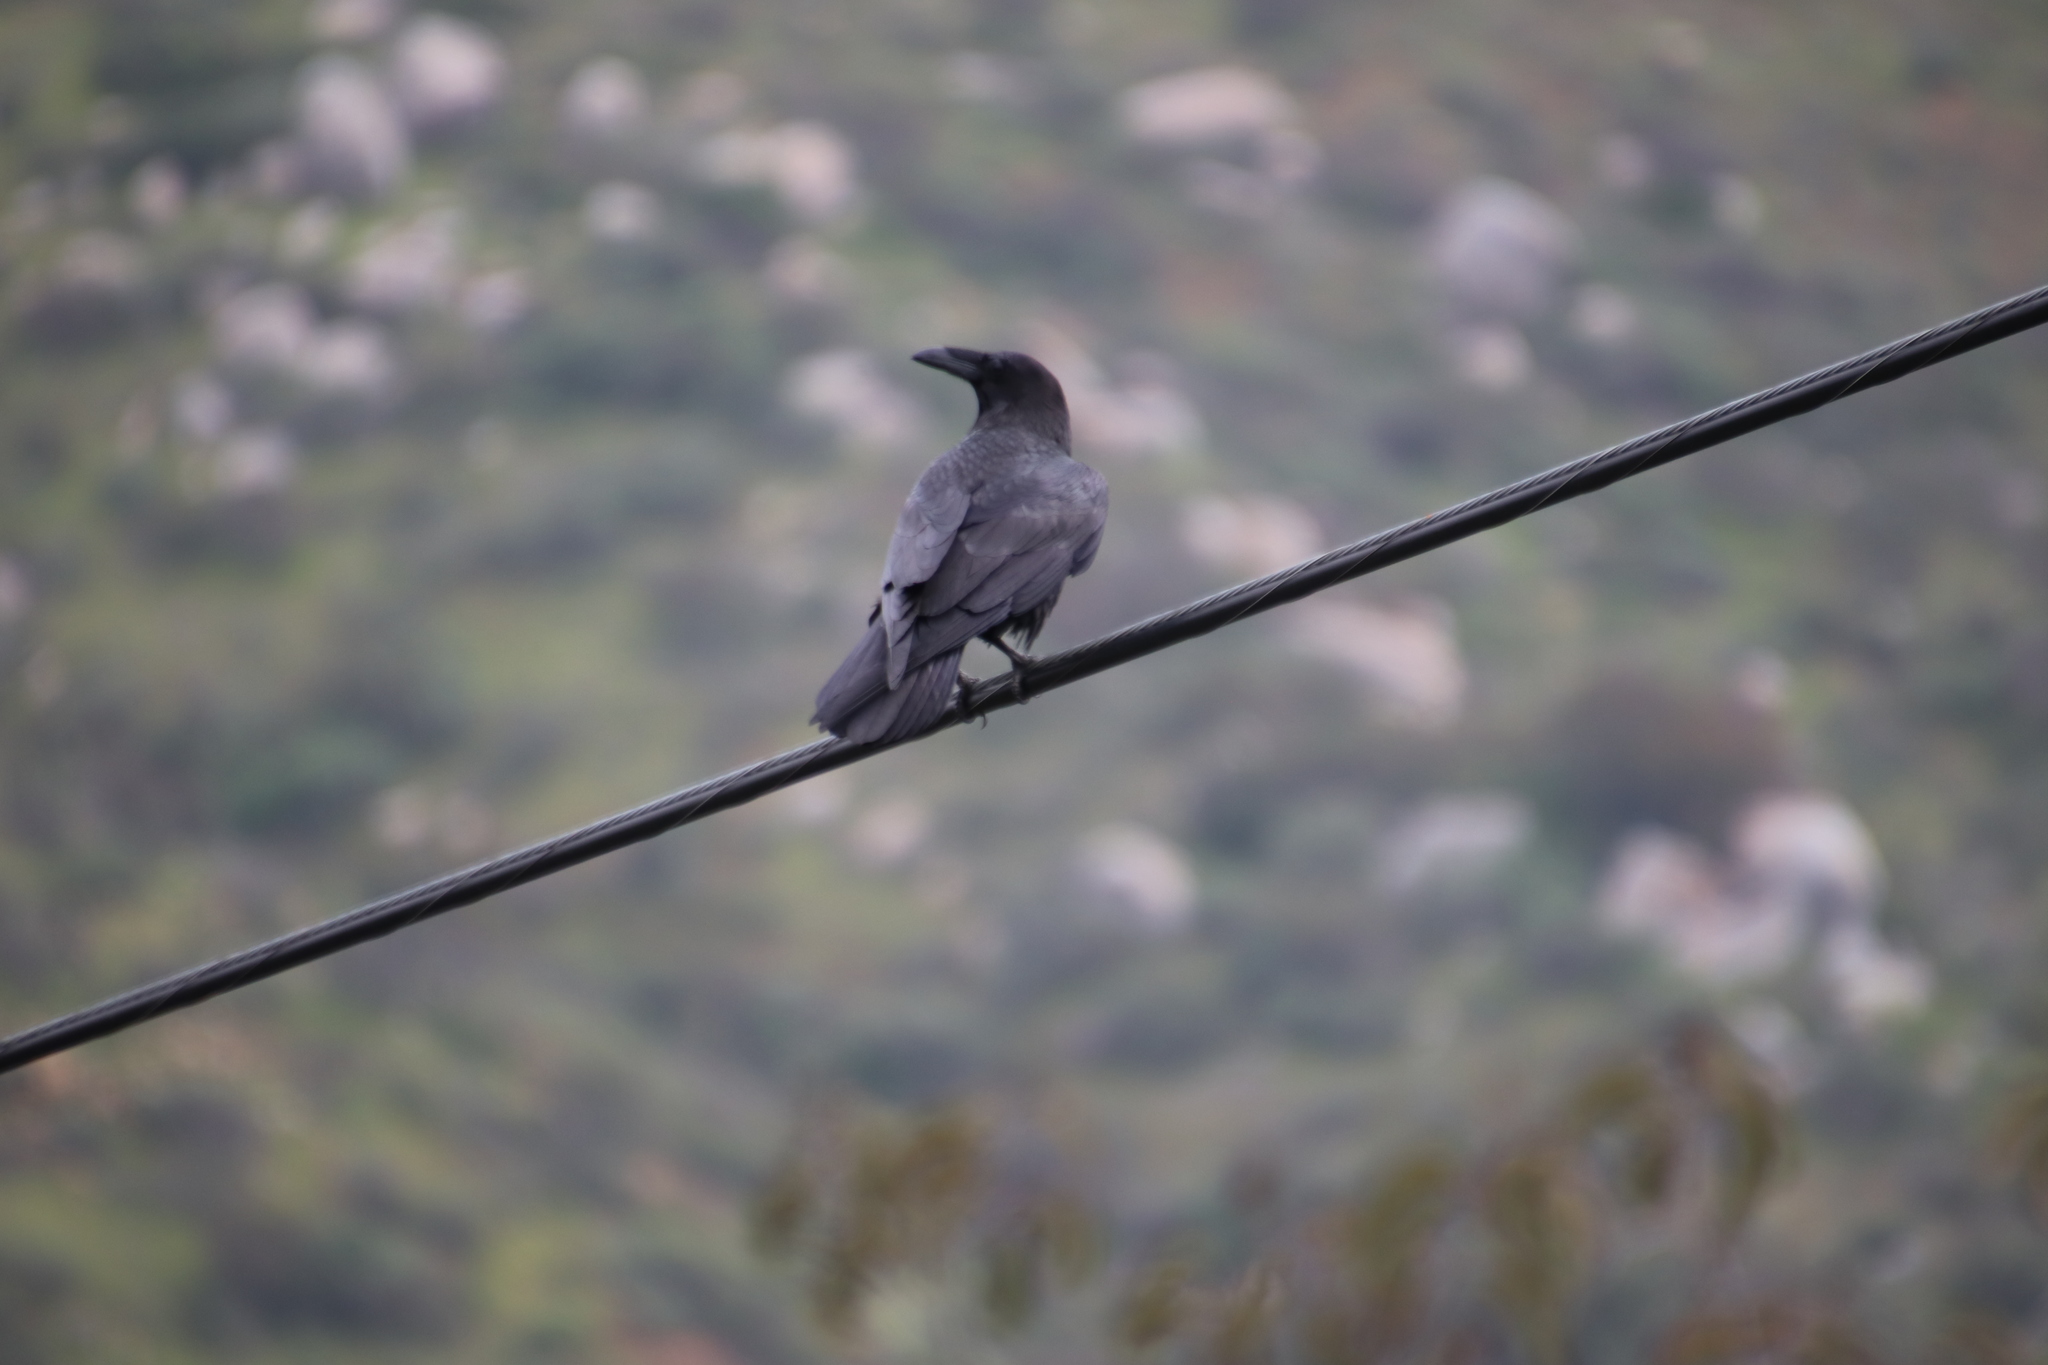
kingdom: Animalia
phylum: Chordata
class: Aves
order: Passeriformes
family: Corvidae
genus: Corvus
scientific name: Corvus corax
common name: Common raven
